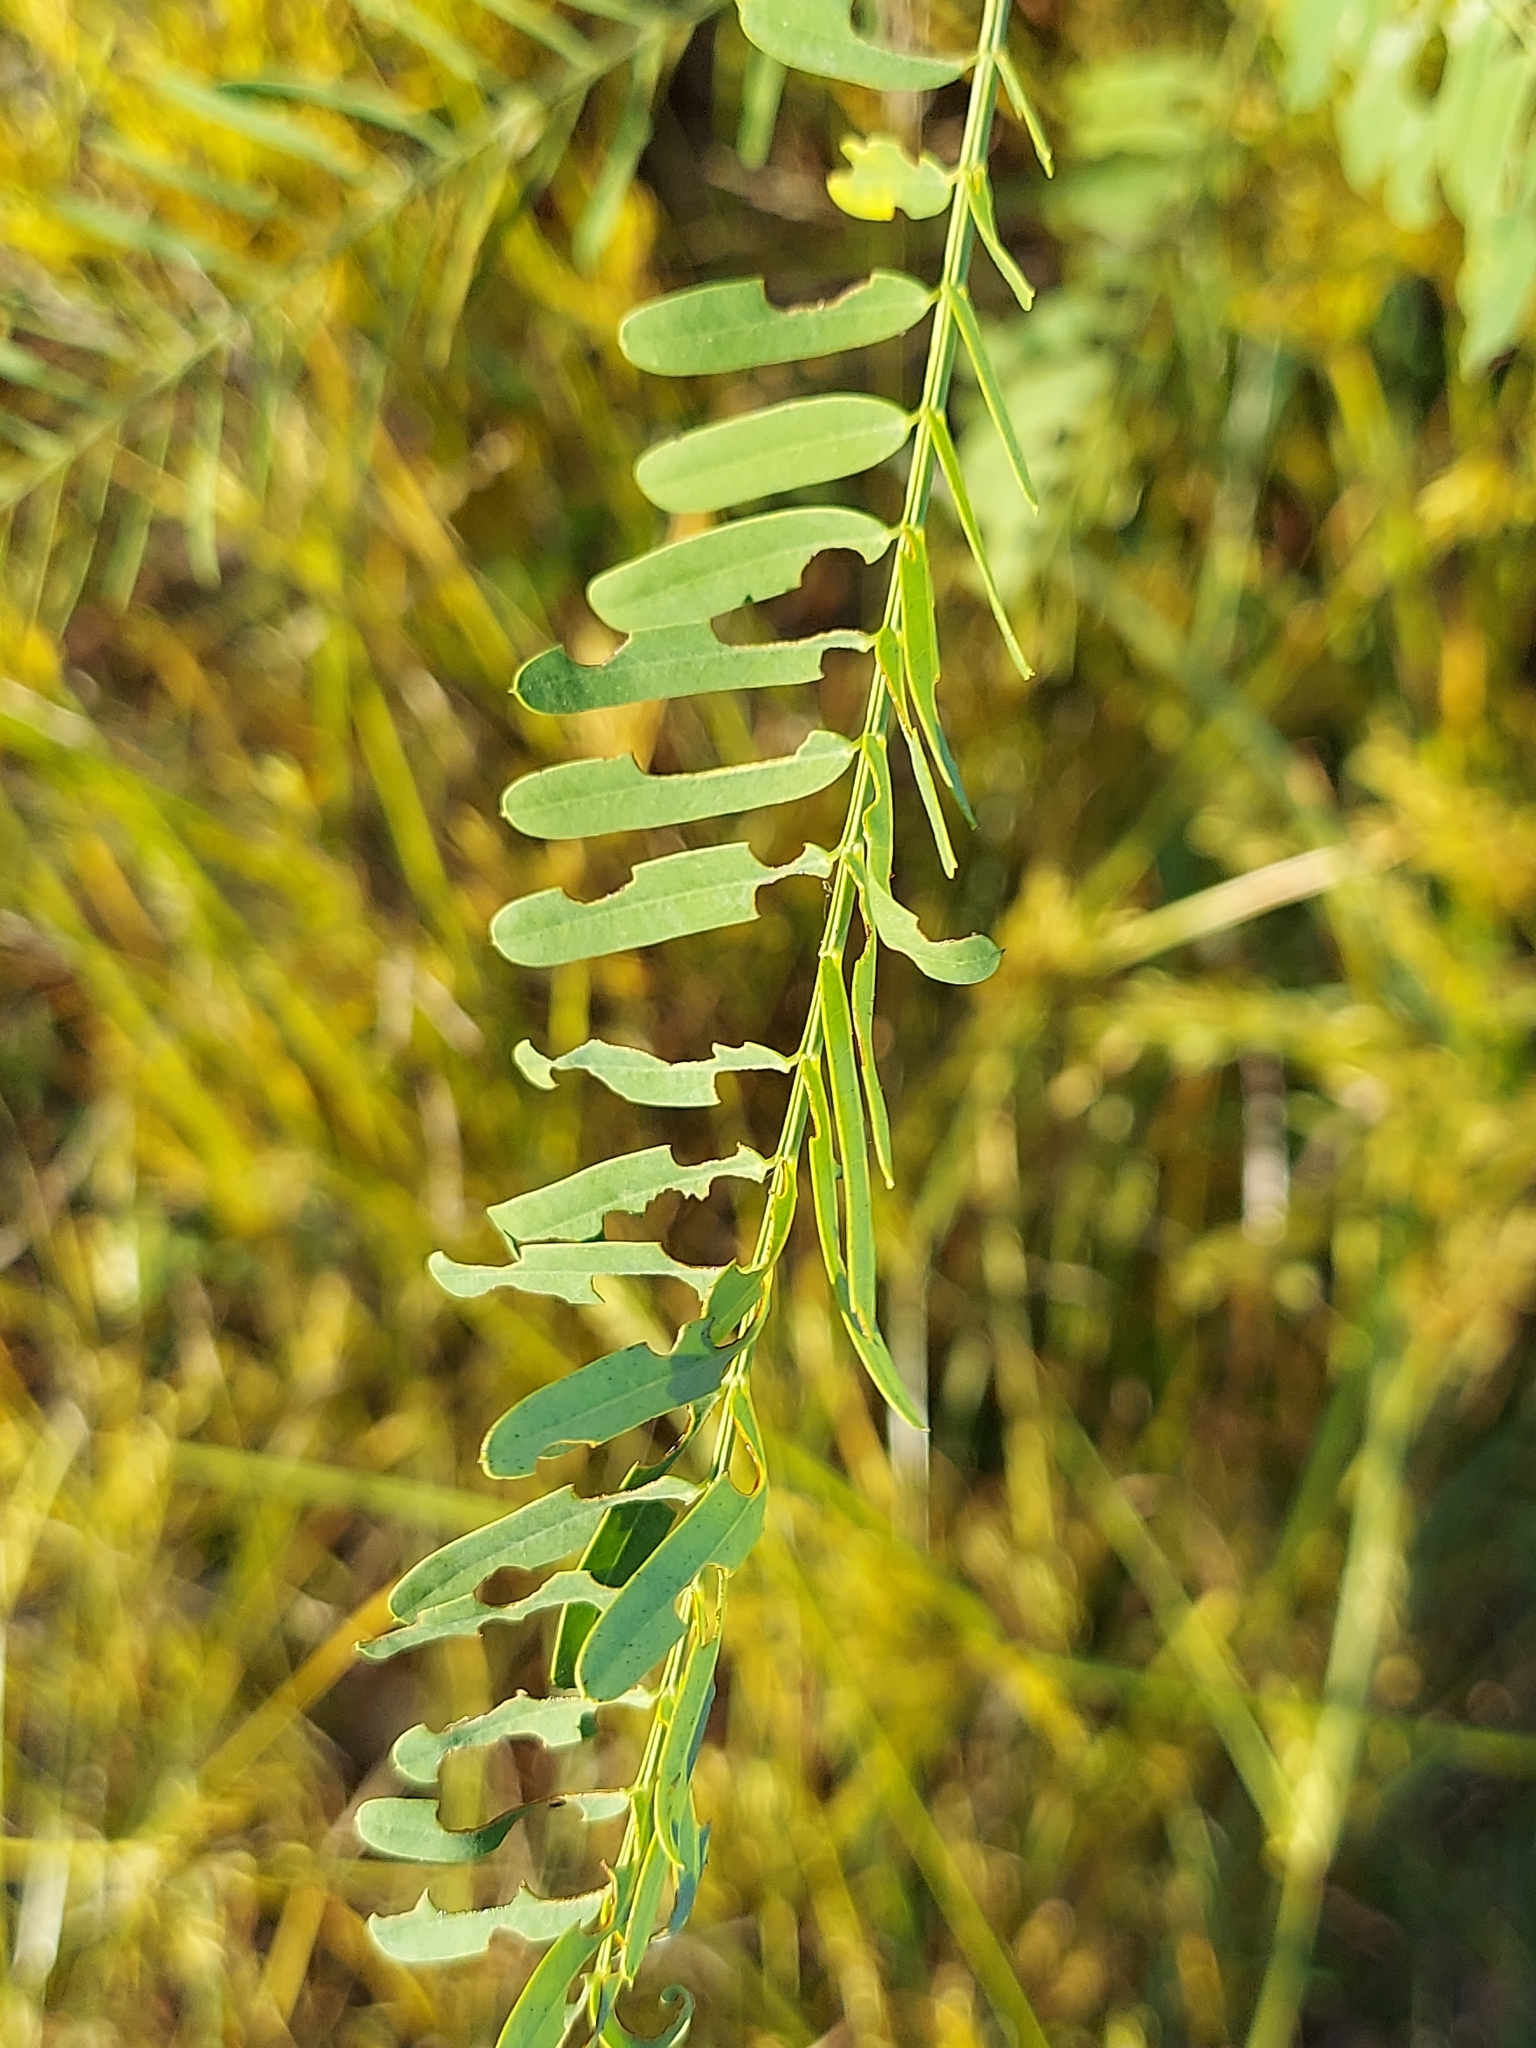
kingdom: Plantae
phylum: Tracheophyta
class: Magnoliopsida
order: Fabales
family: Fabaceae
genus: Sesbania
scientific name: Sesbania herbacea
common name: Bigpod sesbania
